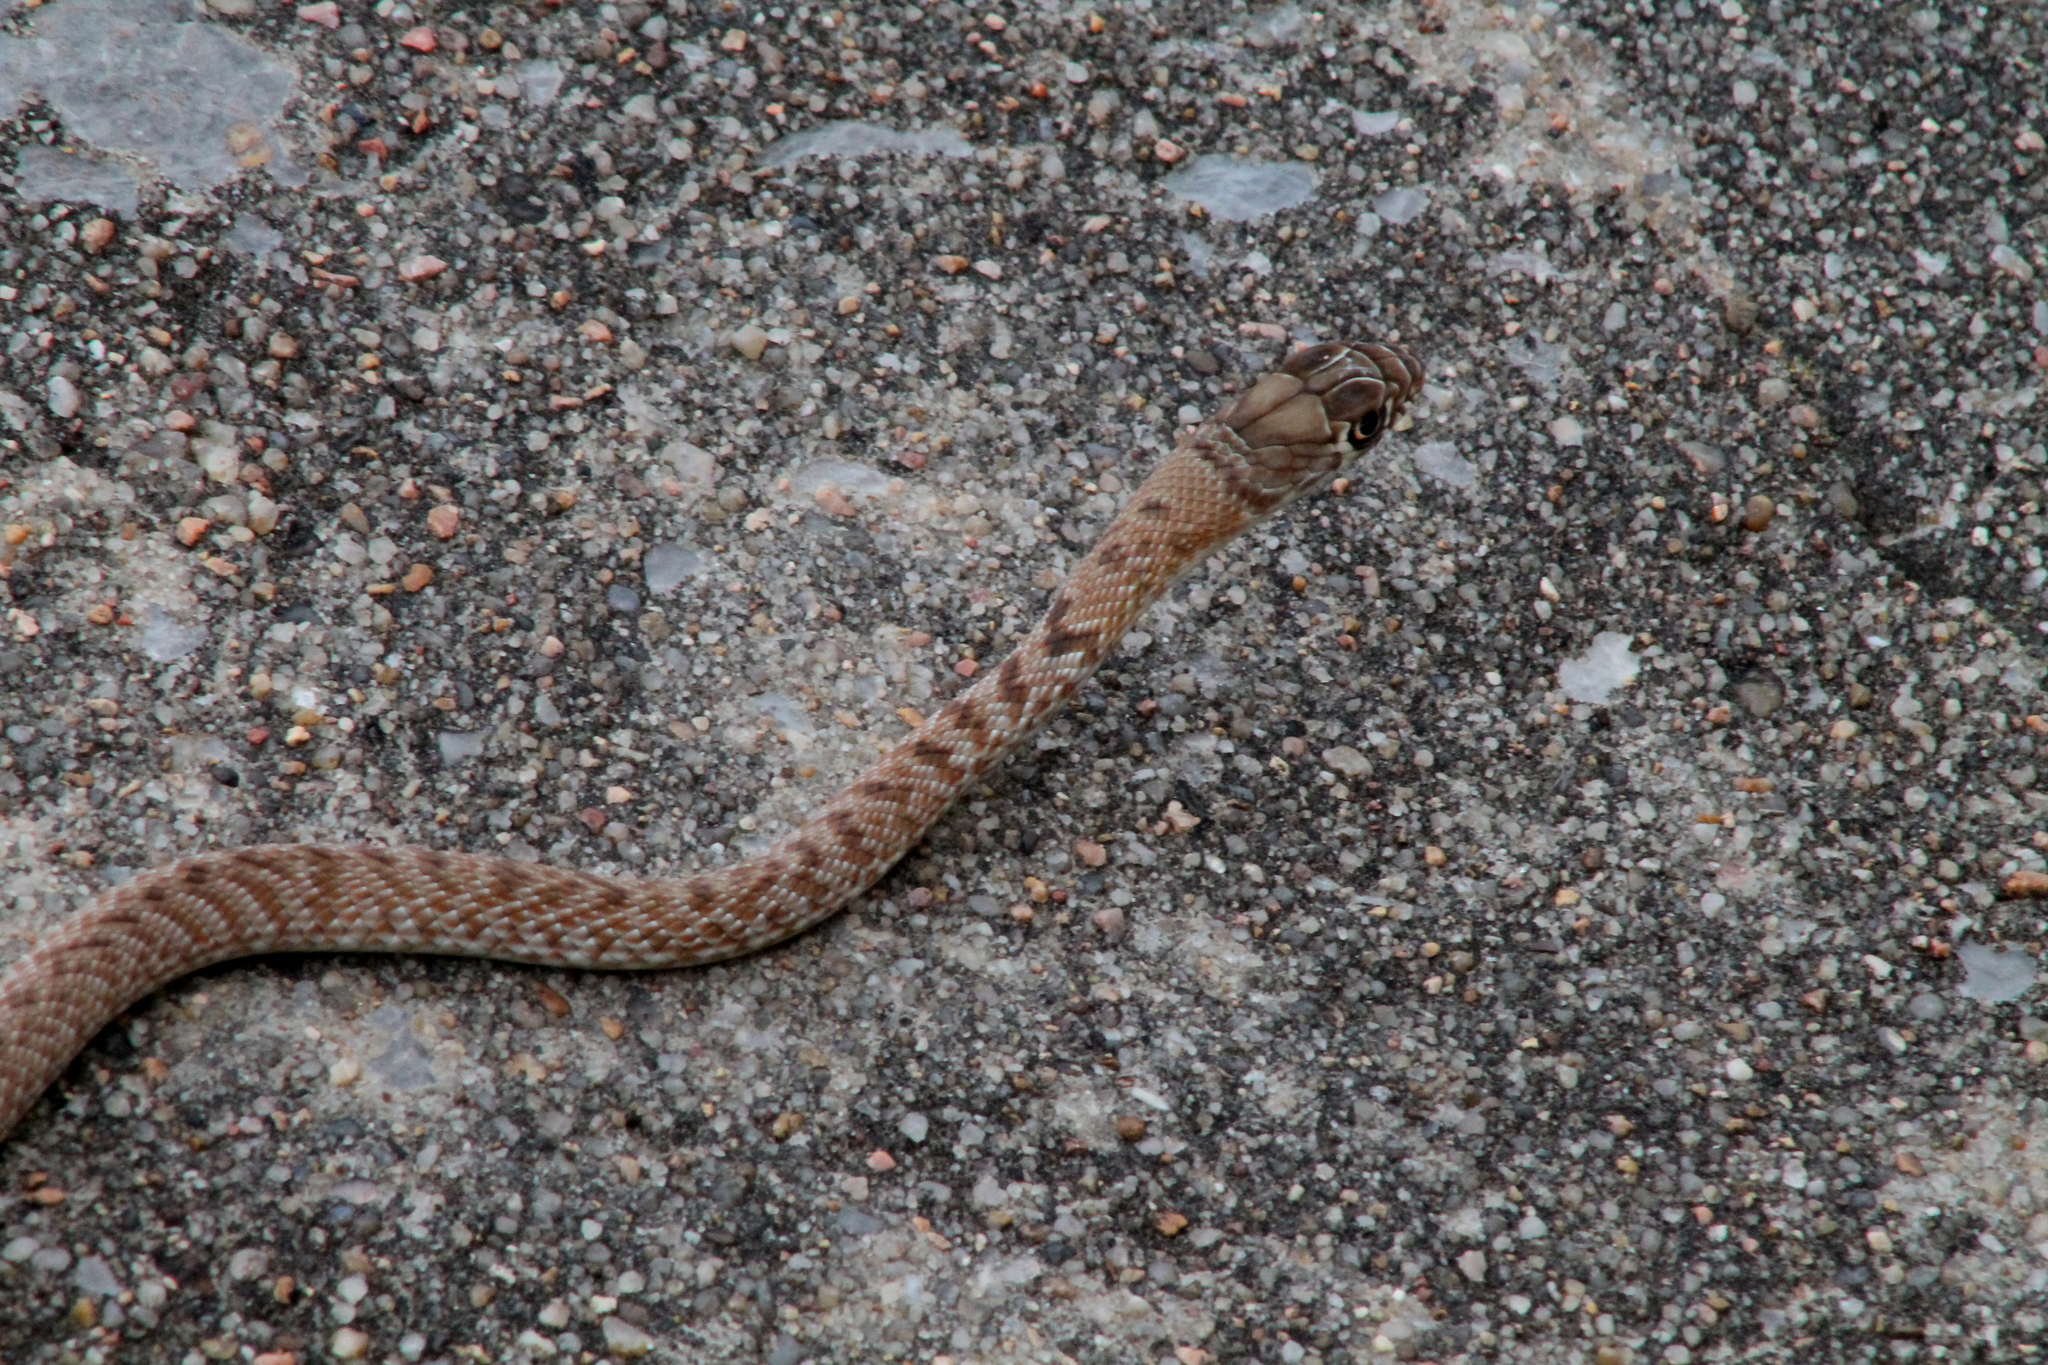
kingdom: Animalia
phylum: Chordata
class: Squamata
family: Colubridae
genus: Masticophis
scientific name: Masticophis flagellum
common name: Coachwhip
